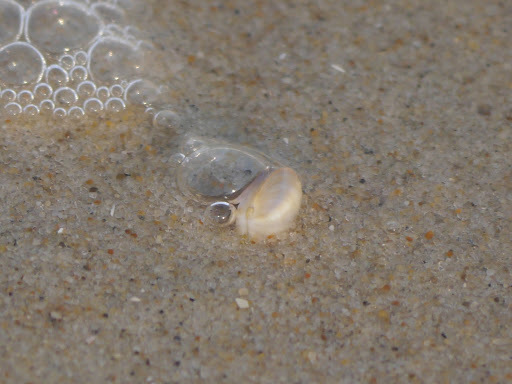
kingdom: Animalia
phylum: Mollusca
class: Bivalvia
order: Cardiida
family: Donacidae
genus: Donax
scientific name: Donax fossor
